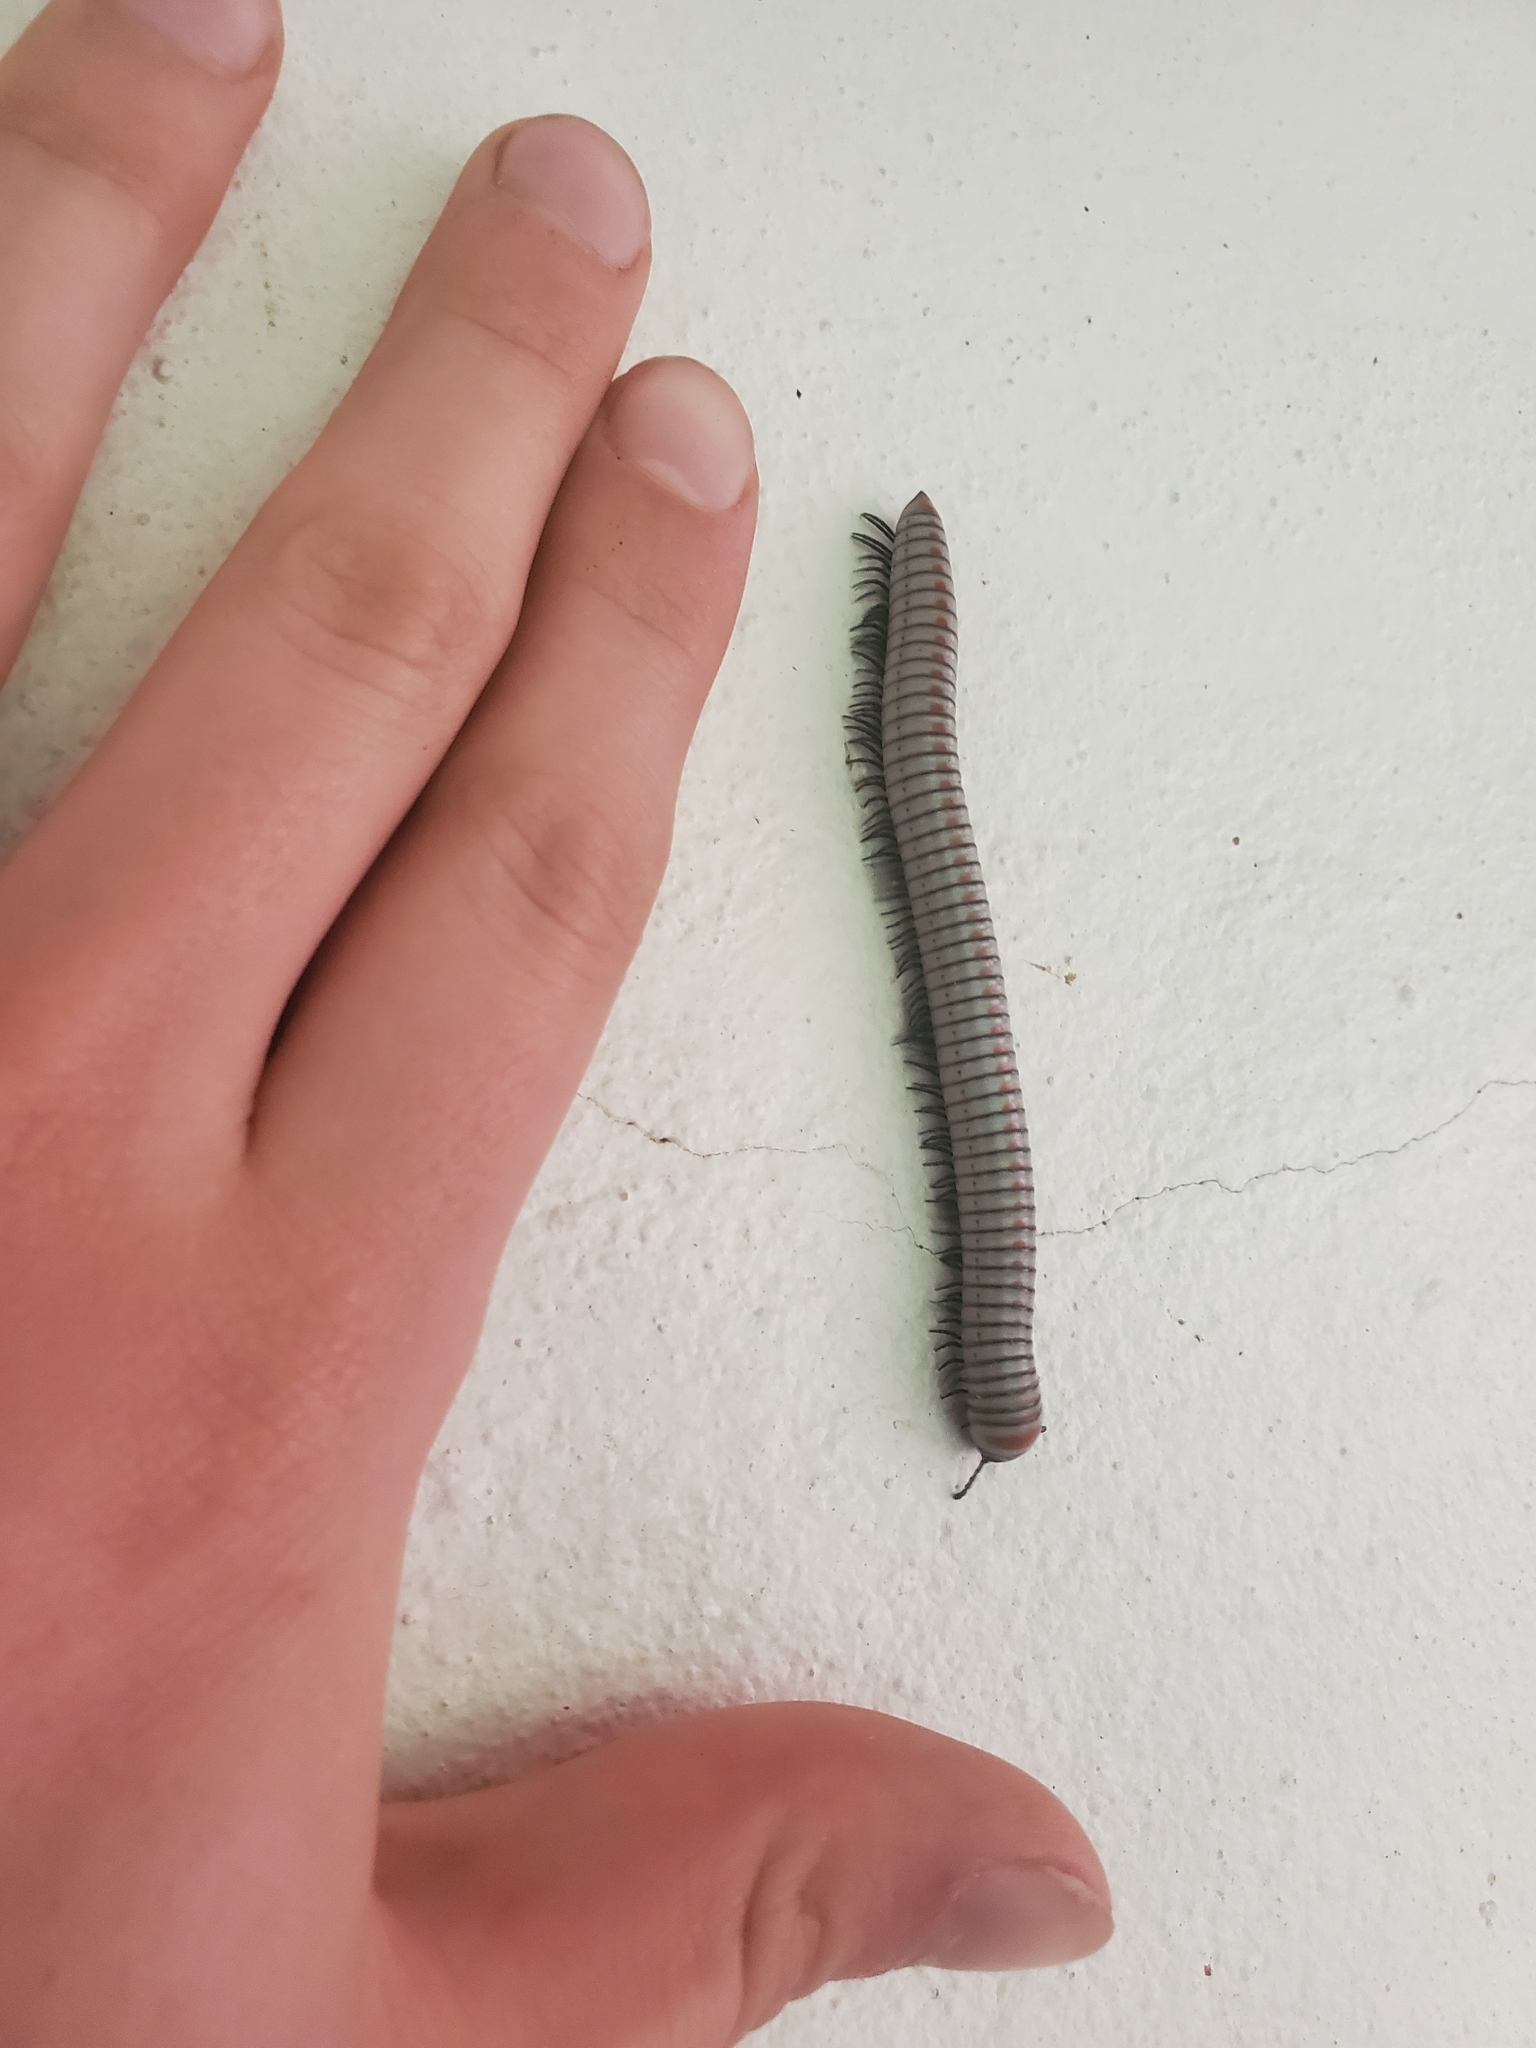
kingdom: Animalia
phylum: Arthropoda
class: Diplopoda
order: Spirobolida
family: Rhinocricidae
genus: Anadenobolus
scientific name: Anadenobolus arboreus
